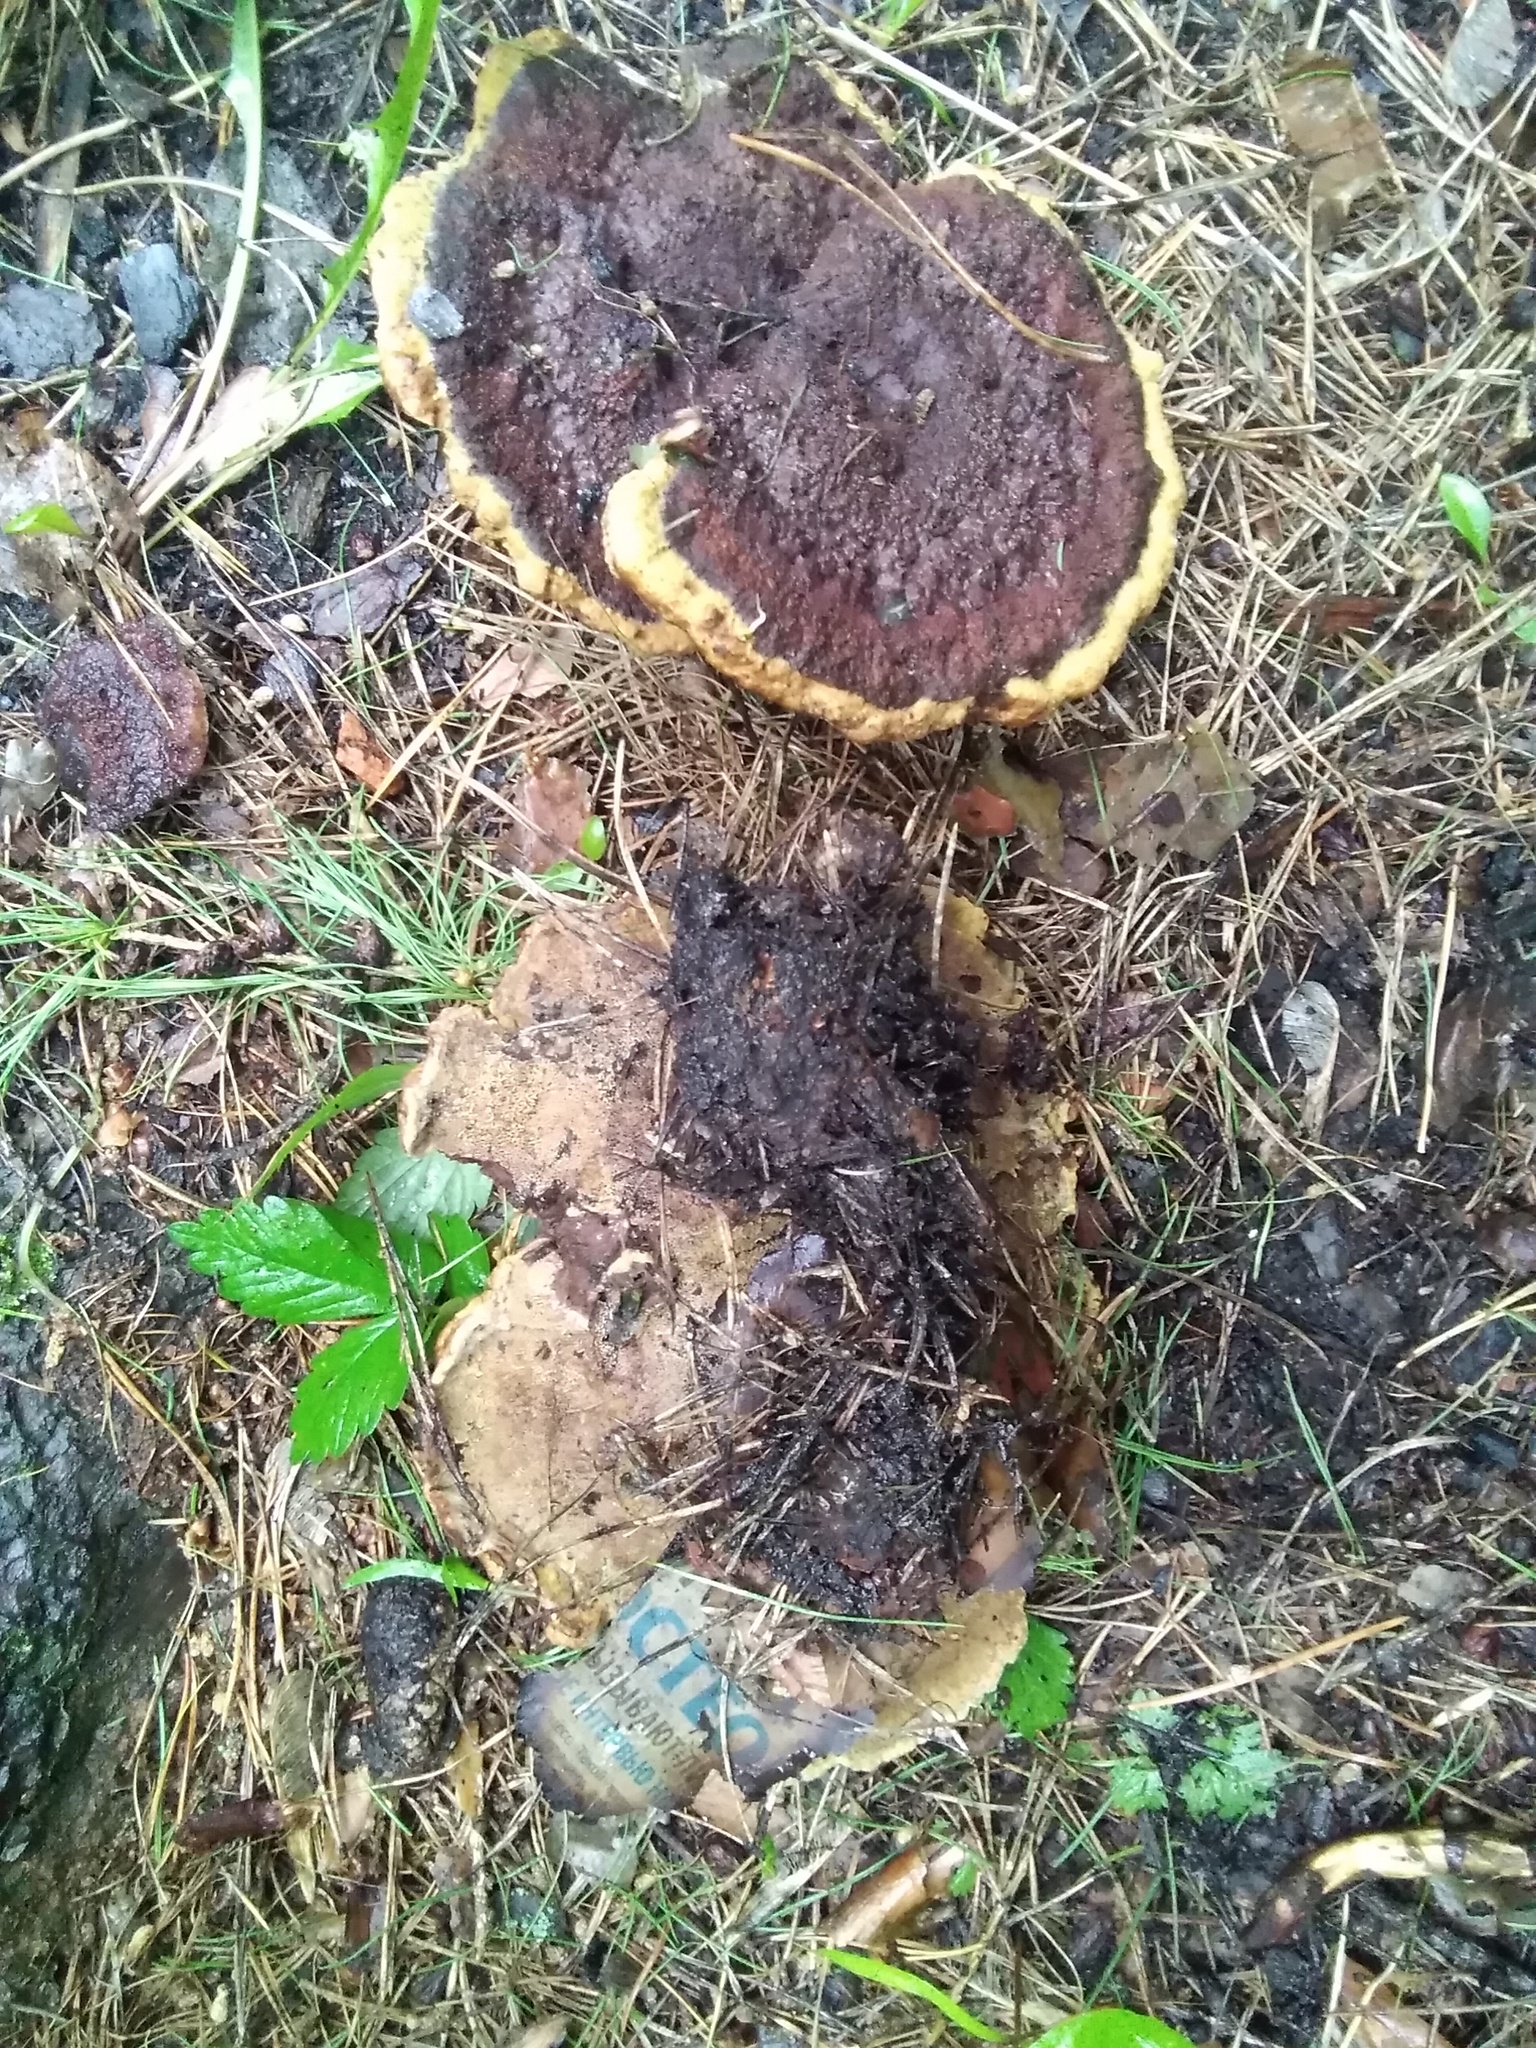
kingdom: Fungi
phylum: Basidiomycota
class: Agaricomycetes
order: Polyporales
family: Laetiporaceae
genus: Phaeolus
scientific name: Phaeolus schweinitzii
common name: Dyer's mazegill
